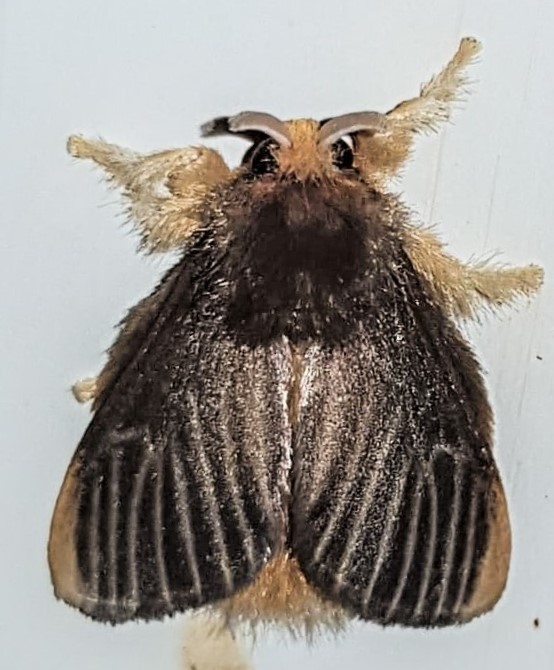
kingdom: Animalia
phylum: Arthropoda
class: Insecta
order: Lepidoptera
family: Megalopygidae
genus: Megalopyge
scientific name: Megalopyge hina
